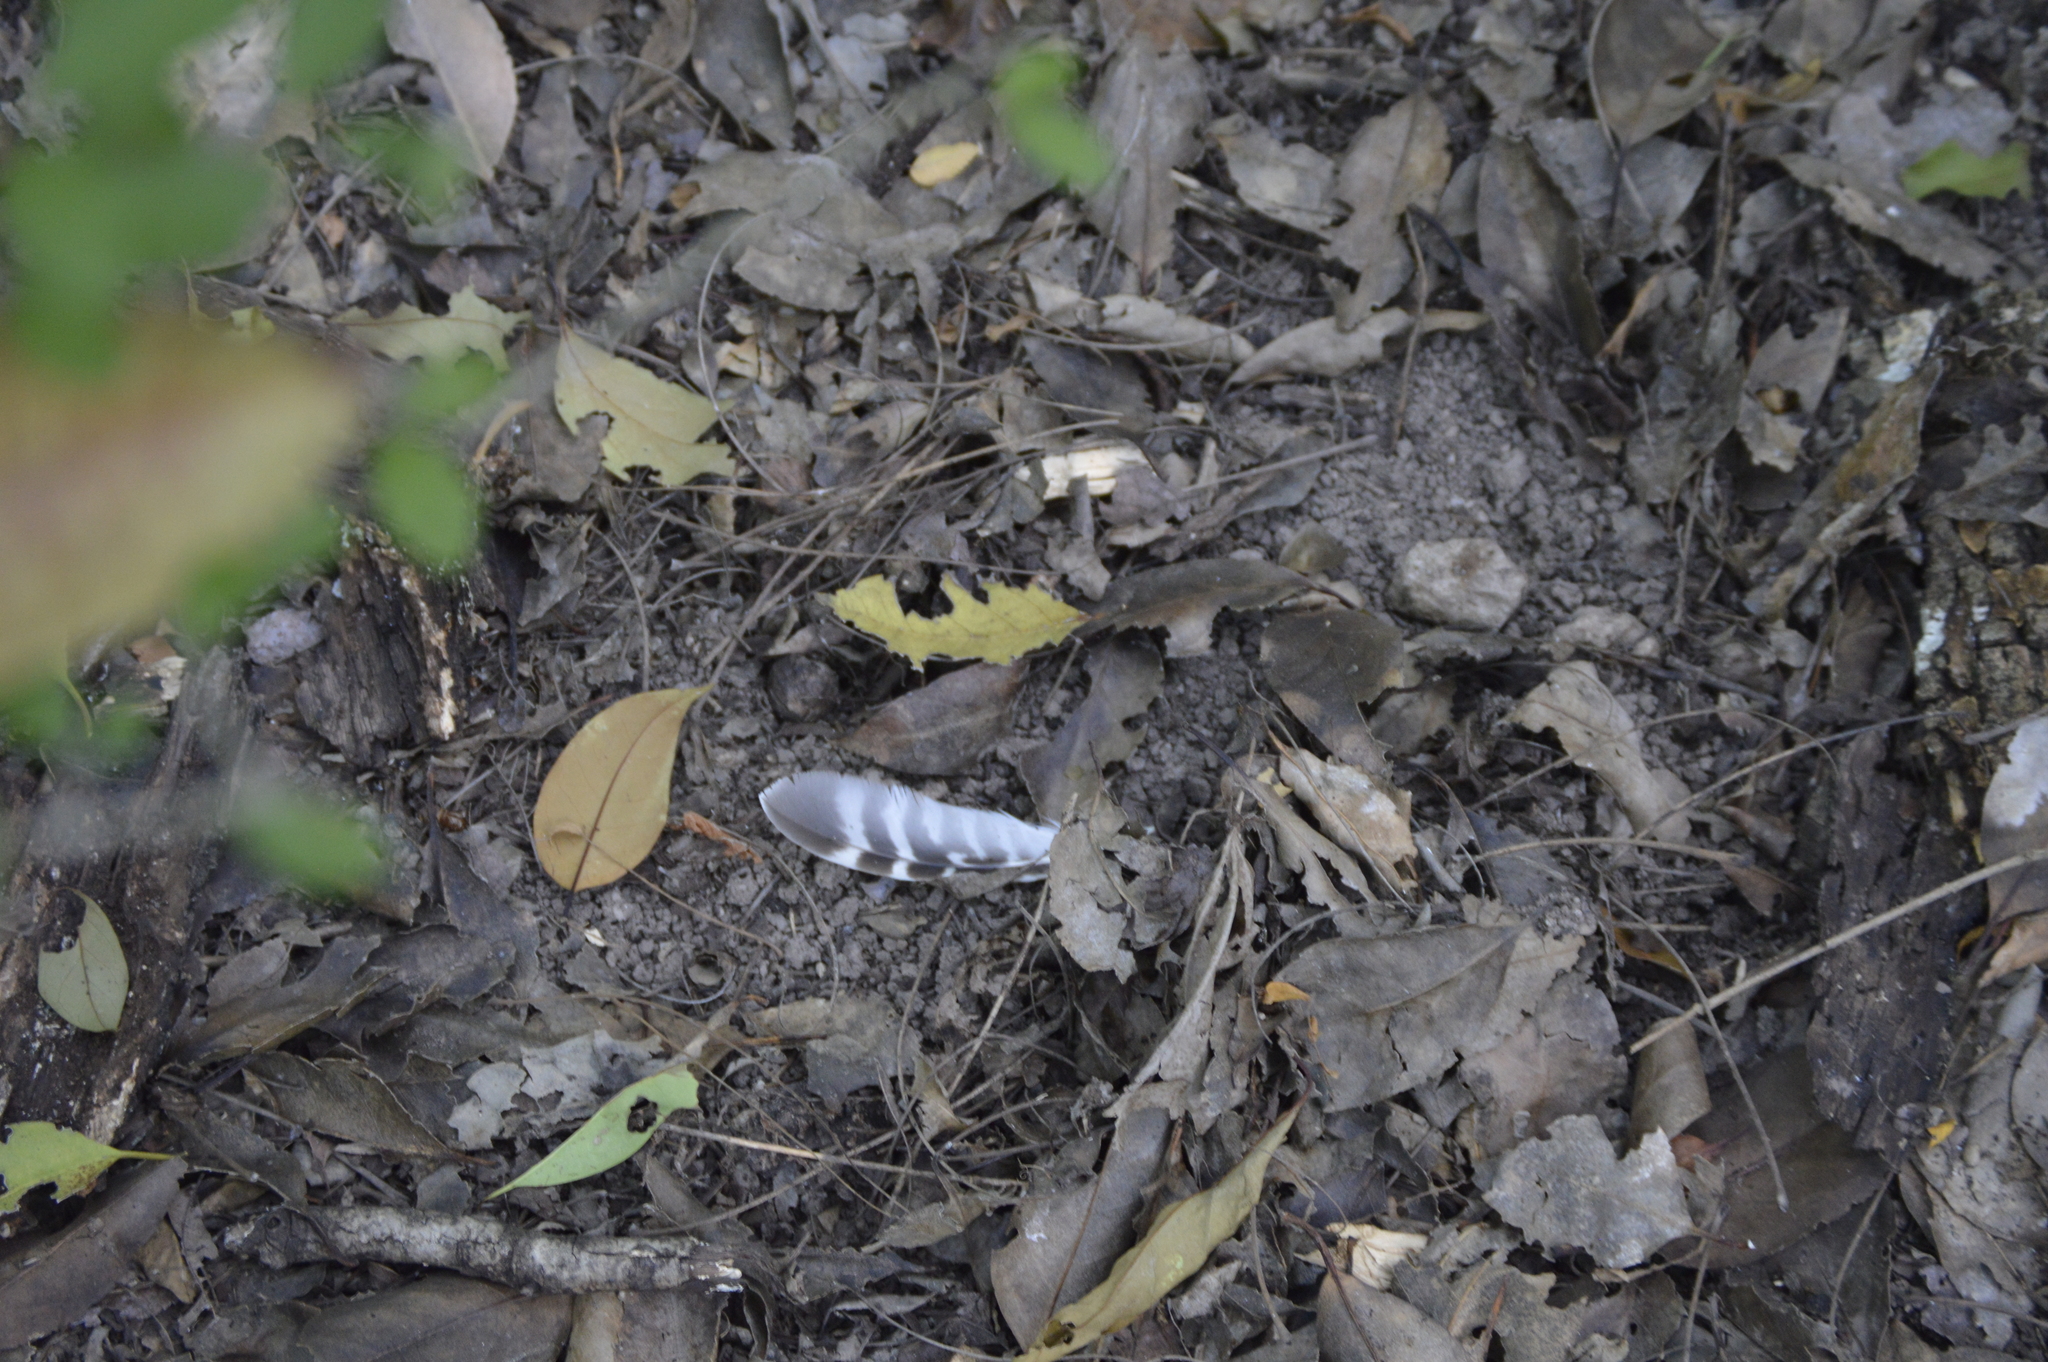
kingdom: Animalia
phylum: Chordata
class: Aves
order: Accipitriformes
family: Accipitridae
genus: Buteo
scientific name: Buteo lineatus
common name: Red-shouldered hawk
